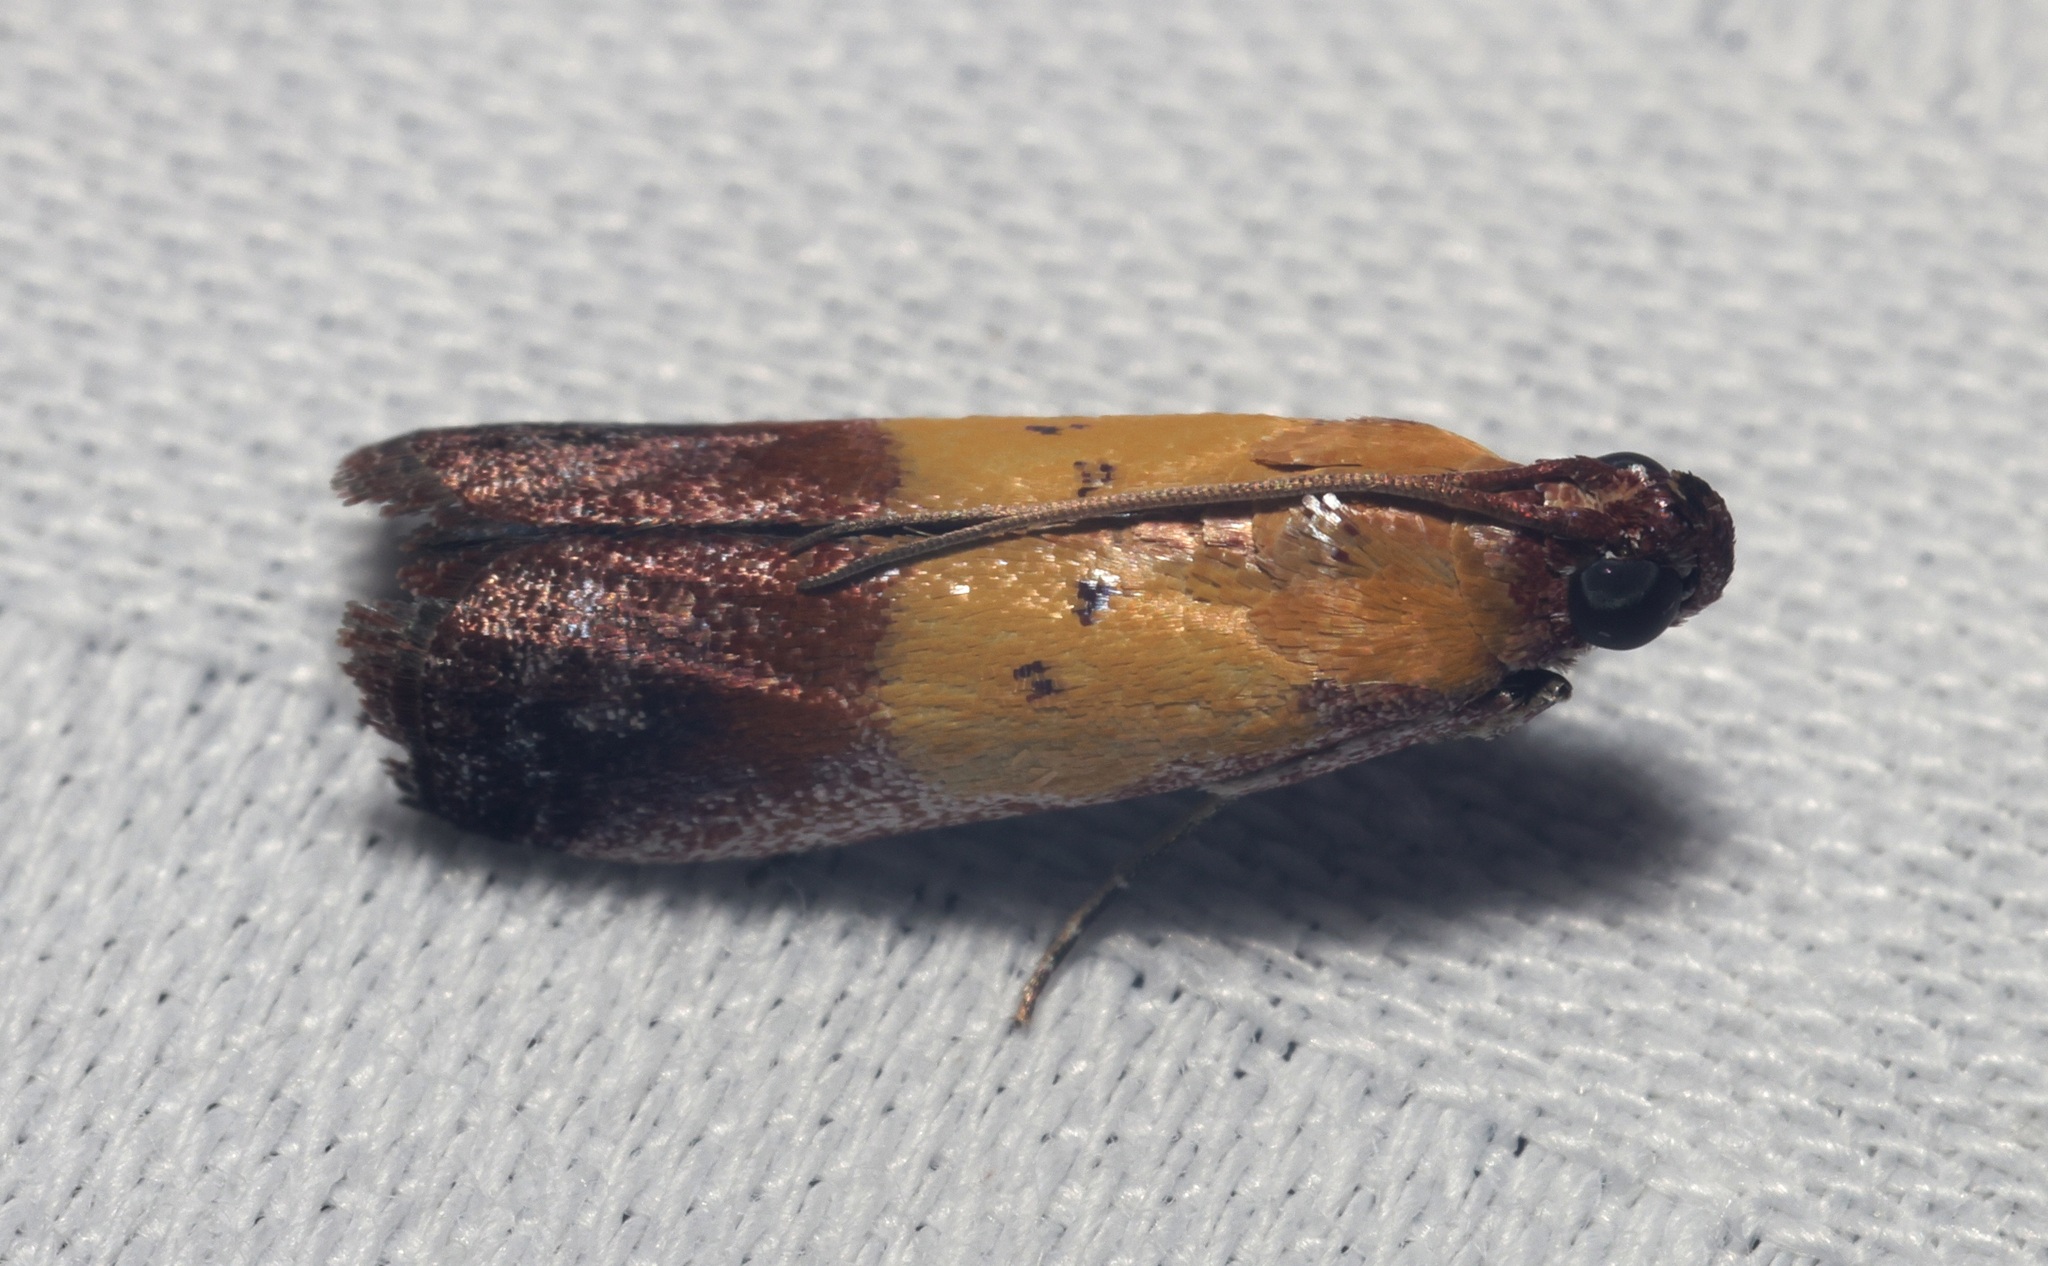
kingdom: Animalia
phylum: Arthropoda
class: Insecta
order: Lepidoptera
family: Pyralidae
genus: Piesmopoda
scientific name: Piesmopoda
